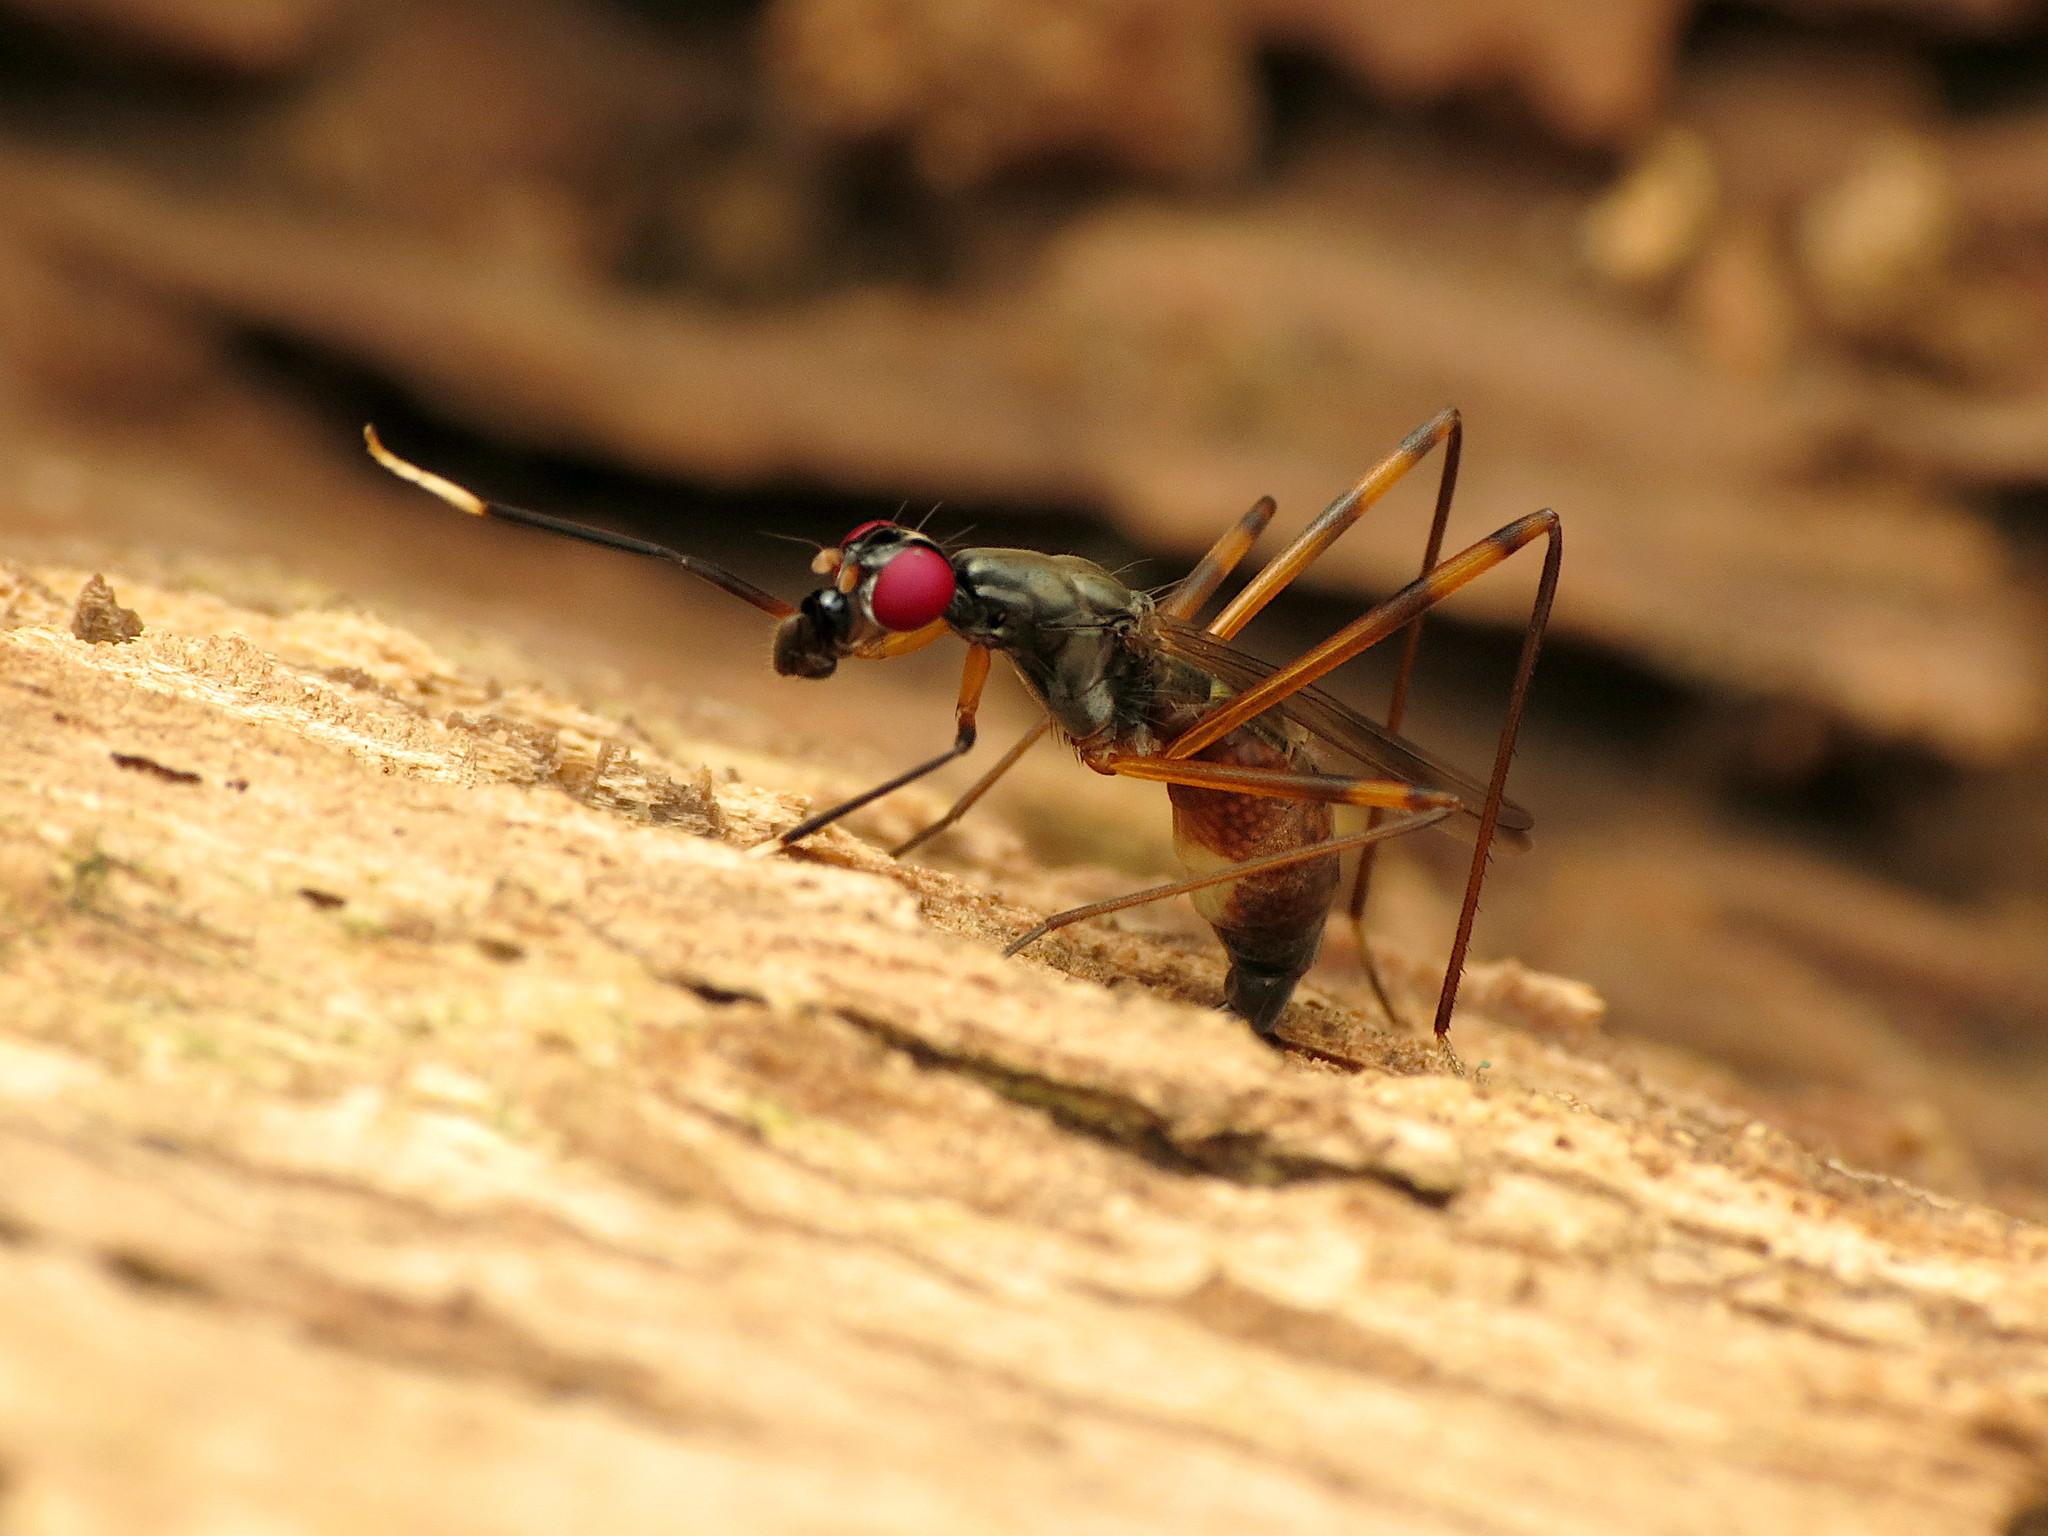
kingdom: Animalia
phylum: Arthropoda
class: Insecta
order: Diptera
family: Micropezidae
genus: Rainieria
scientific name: Rainieria antennaepes
